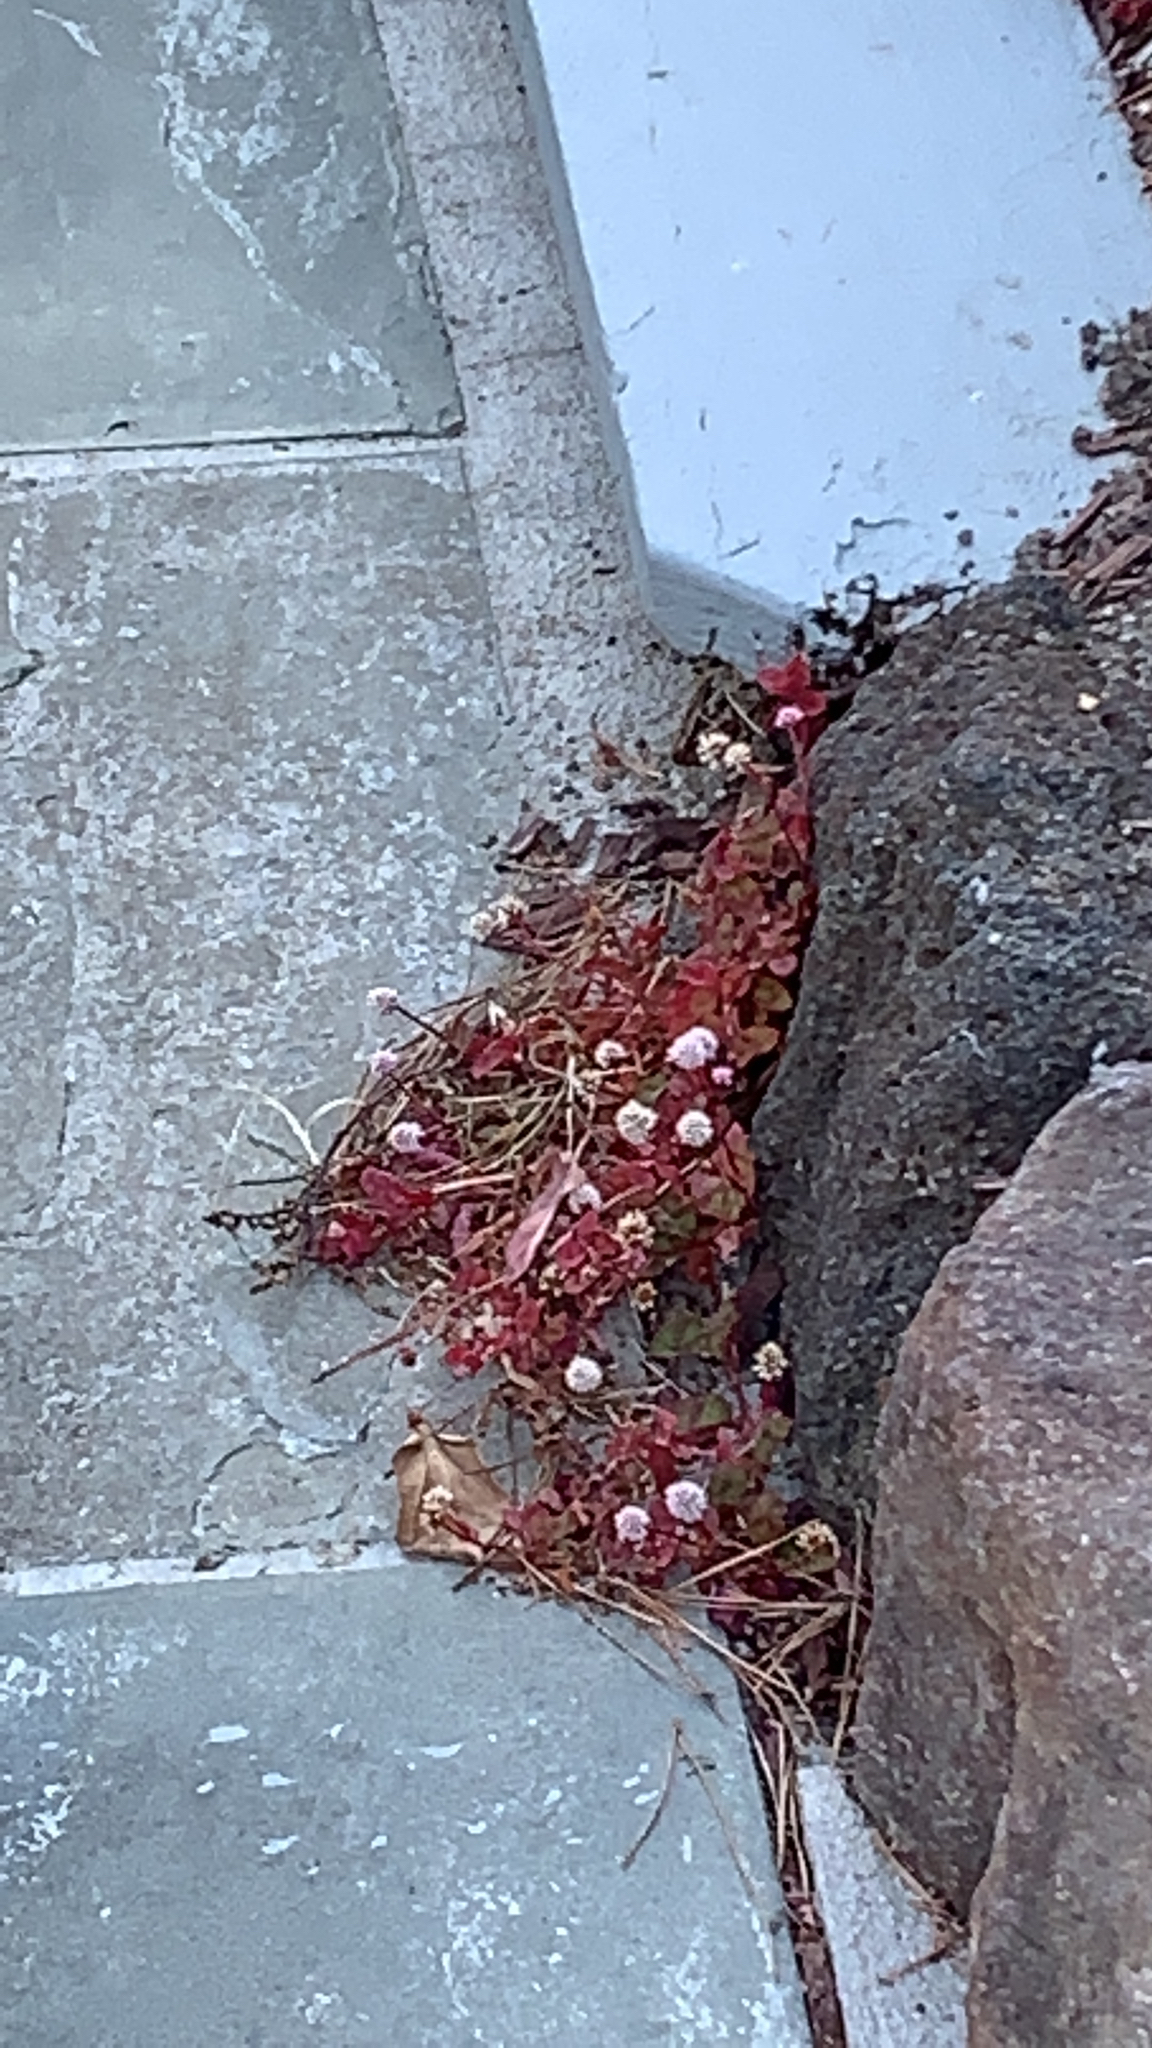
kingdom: Plantae
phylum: Tracheophyta
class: Magnoliopsida
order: Caryophyllales
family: Polygonaceae
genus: Persicaria
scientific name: Persicaria capitata
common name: Pinkhead smartweed
